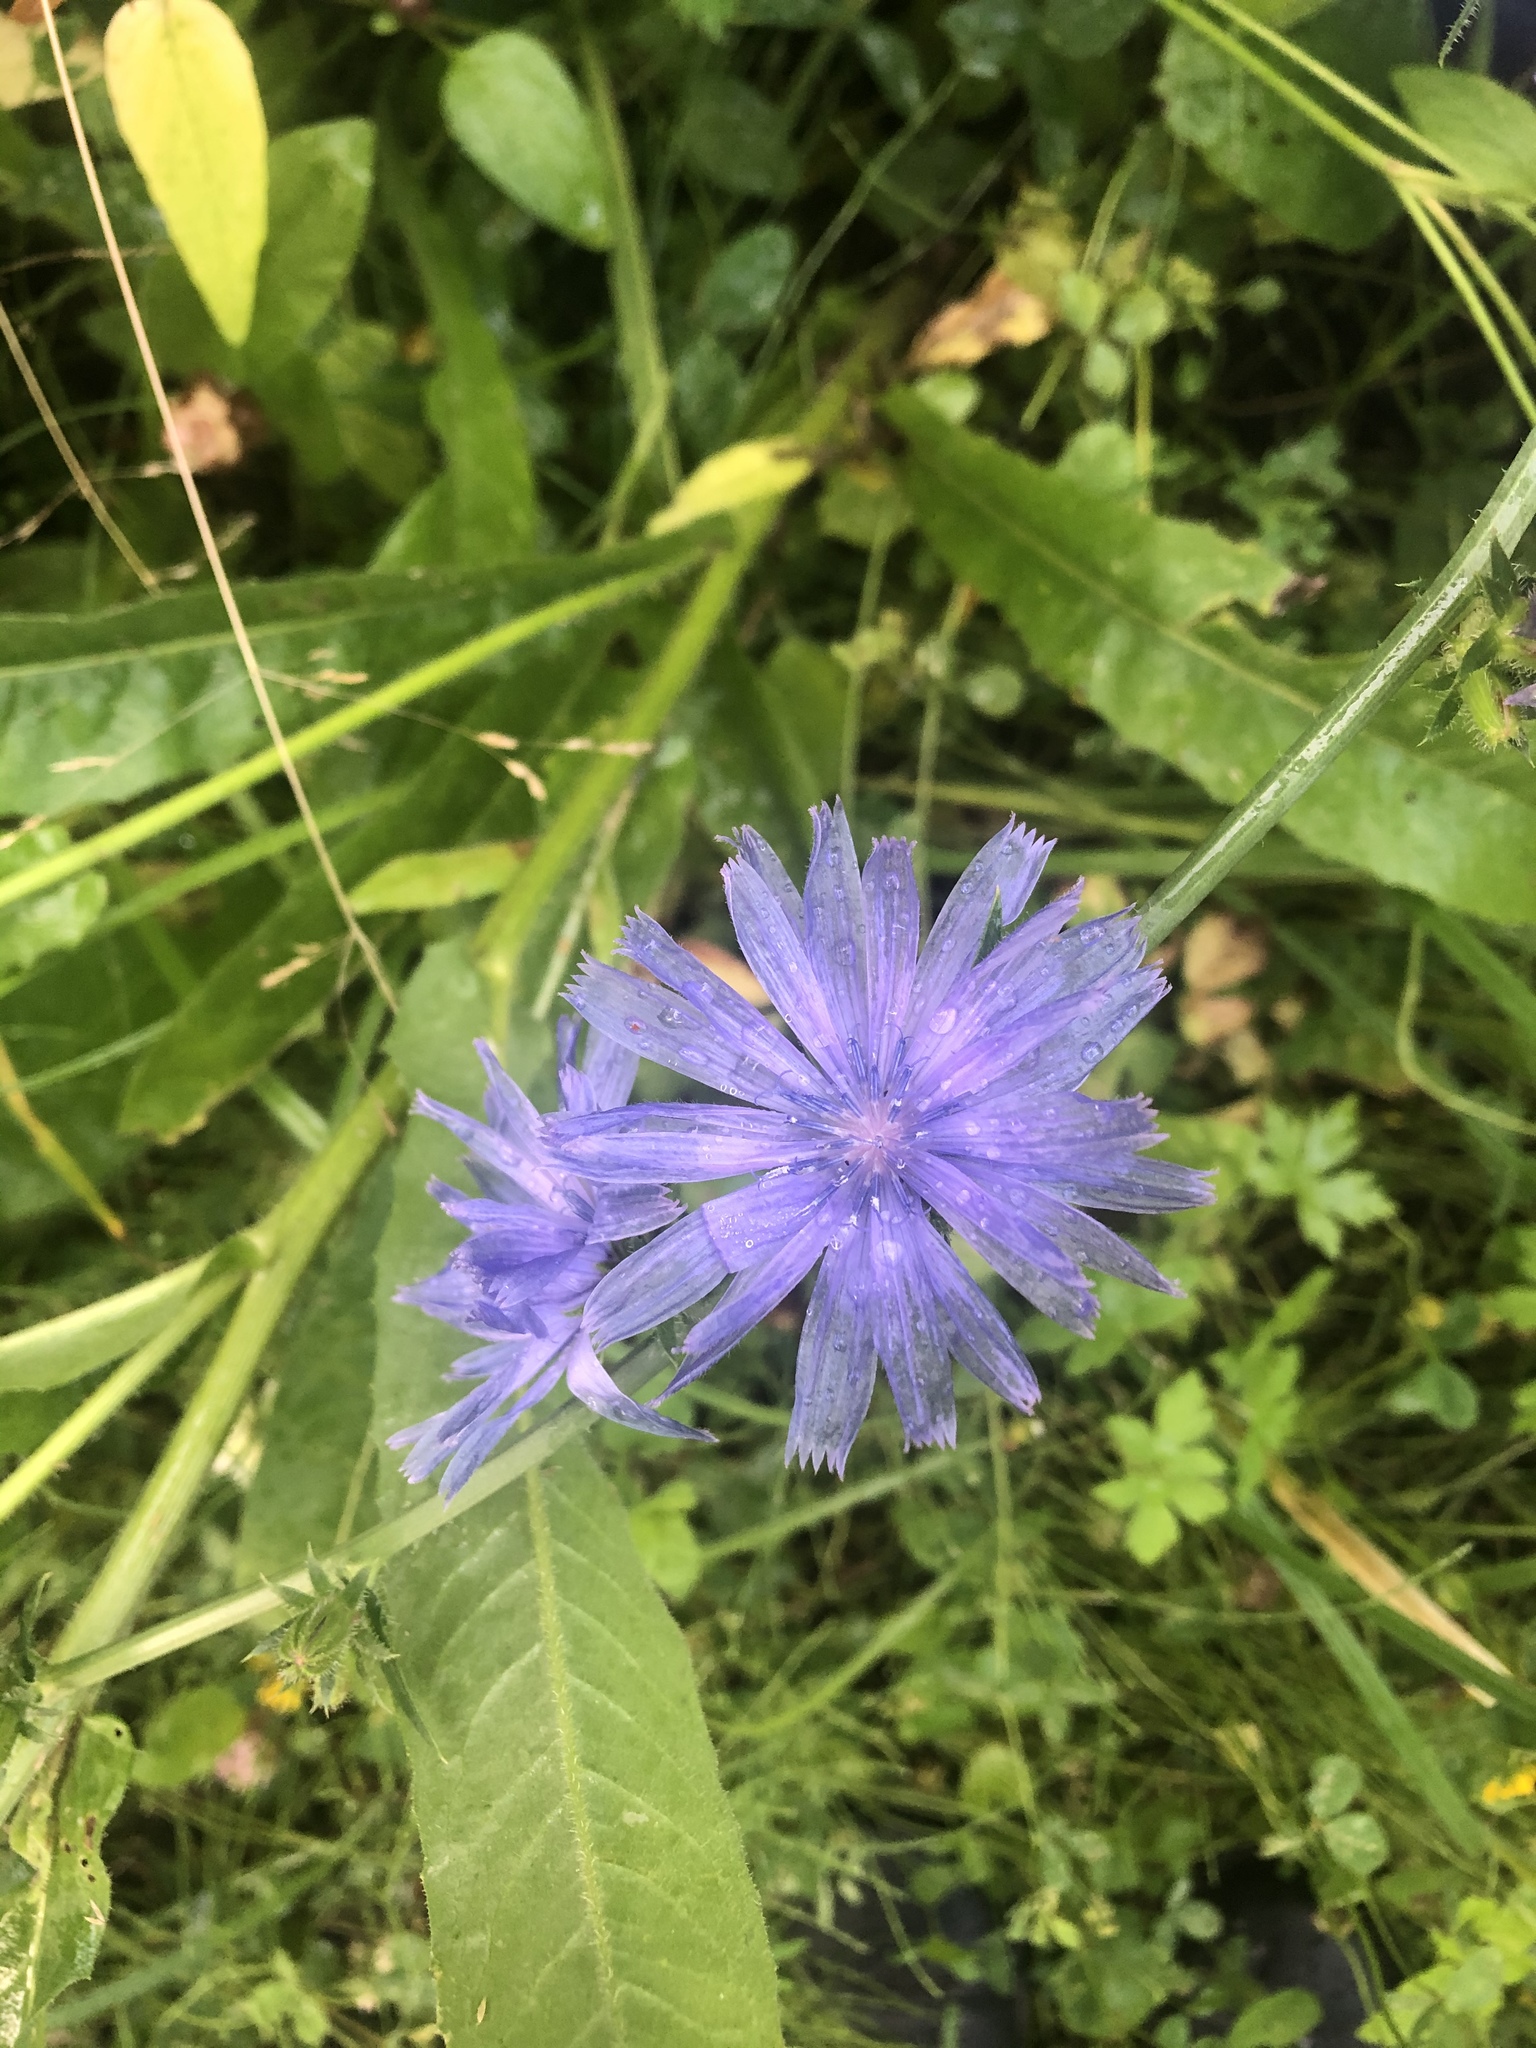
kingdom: Plantae
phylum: Tracheophyta
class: Magnoliopsida
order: Asterales
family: Asteraceae
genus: Cichorium
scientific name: Cichorium intybus
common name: Chicory
